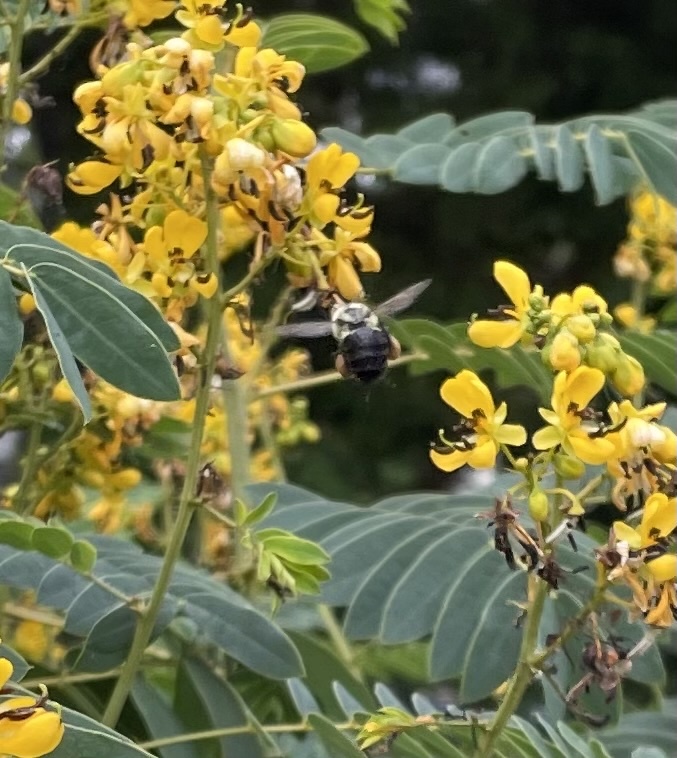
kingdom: Animalia
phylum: Arthropoda
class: Insecta
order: Hymenoptera
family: Apidae
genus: Bombus
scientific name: Bombus impatiens
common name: Common eastern bumble bee
